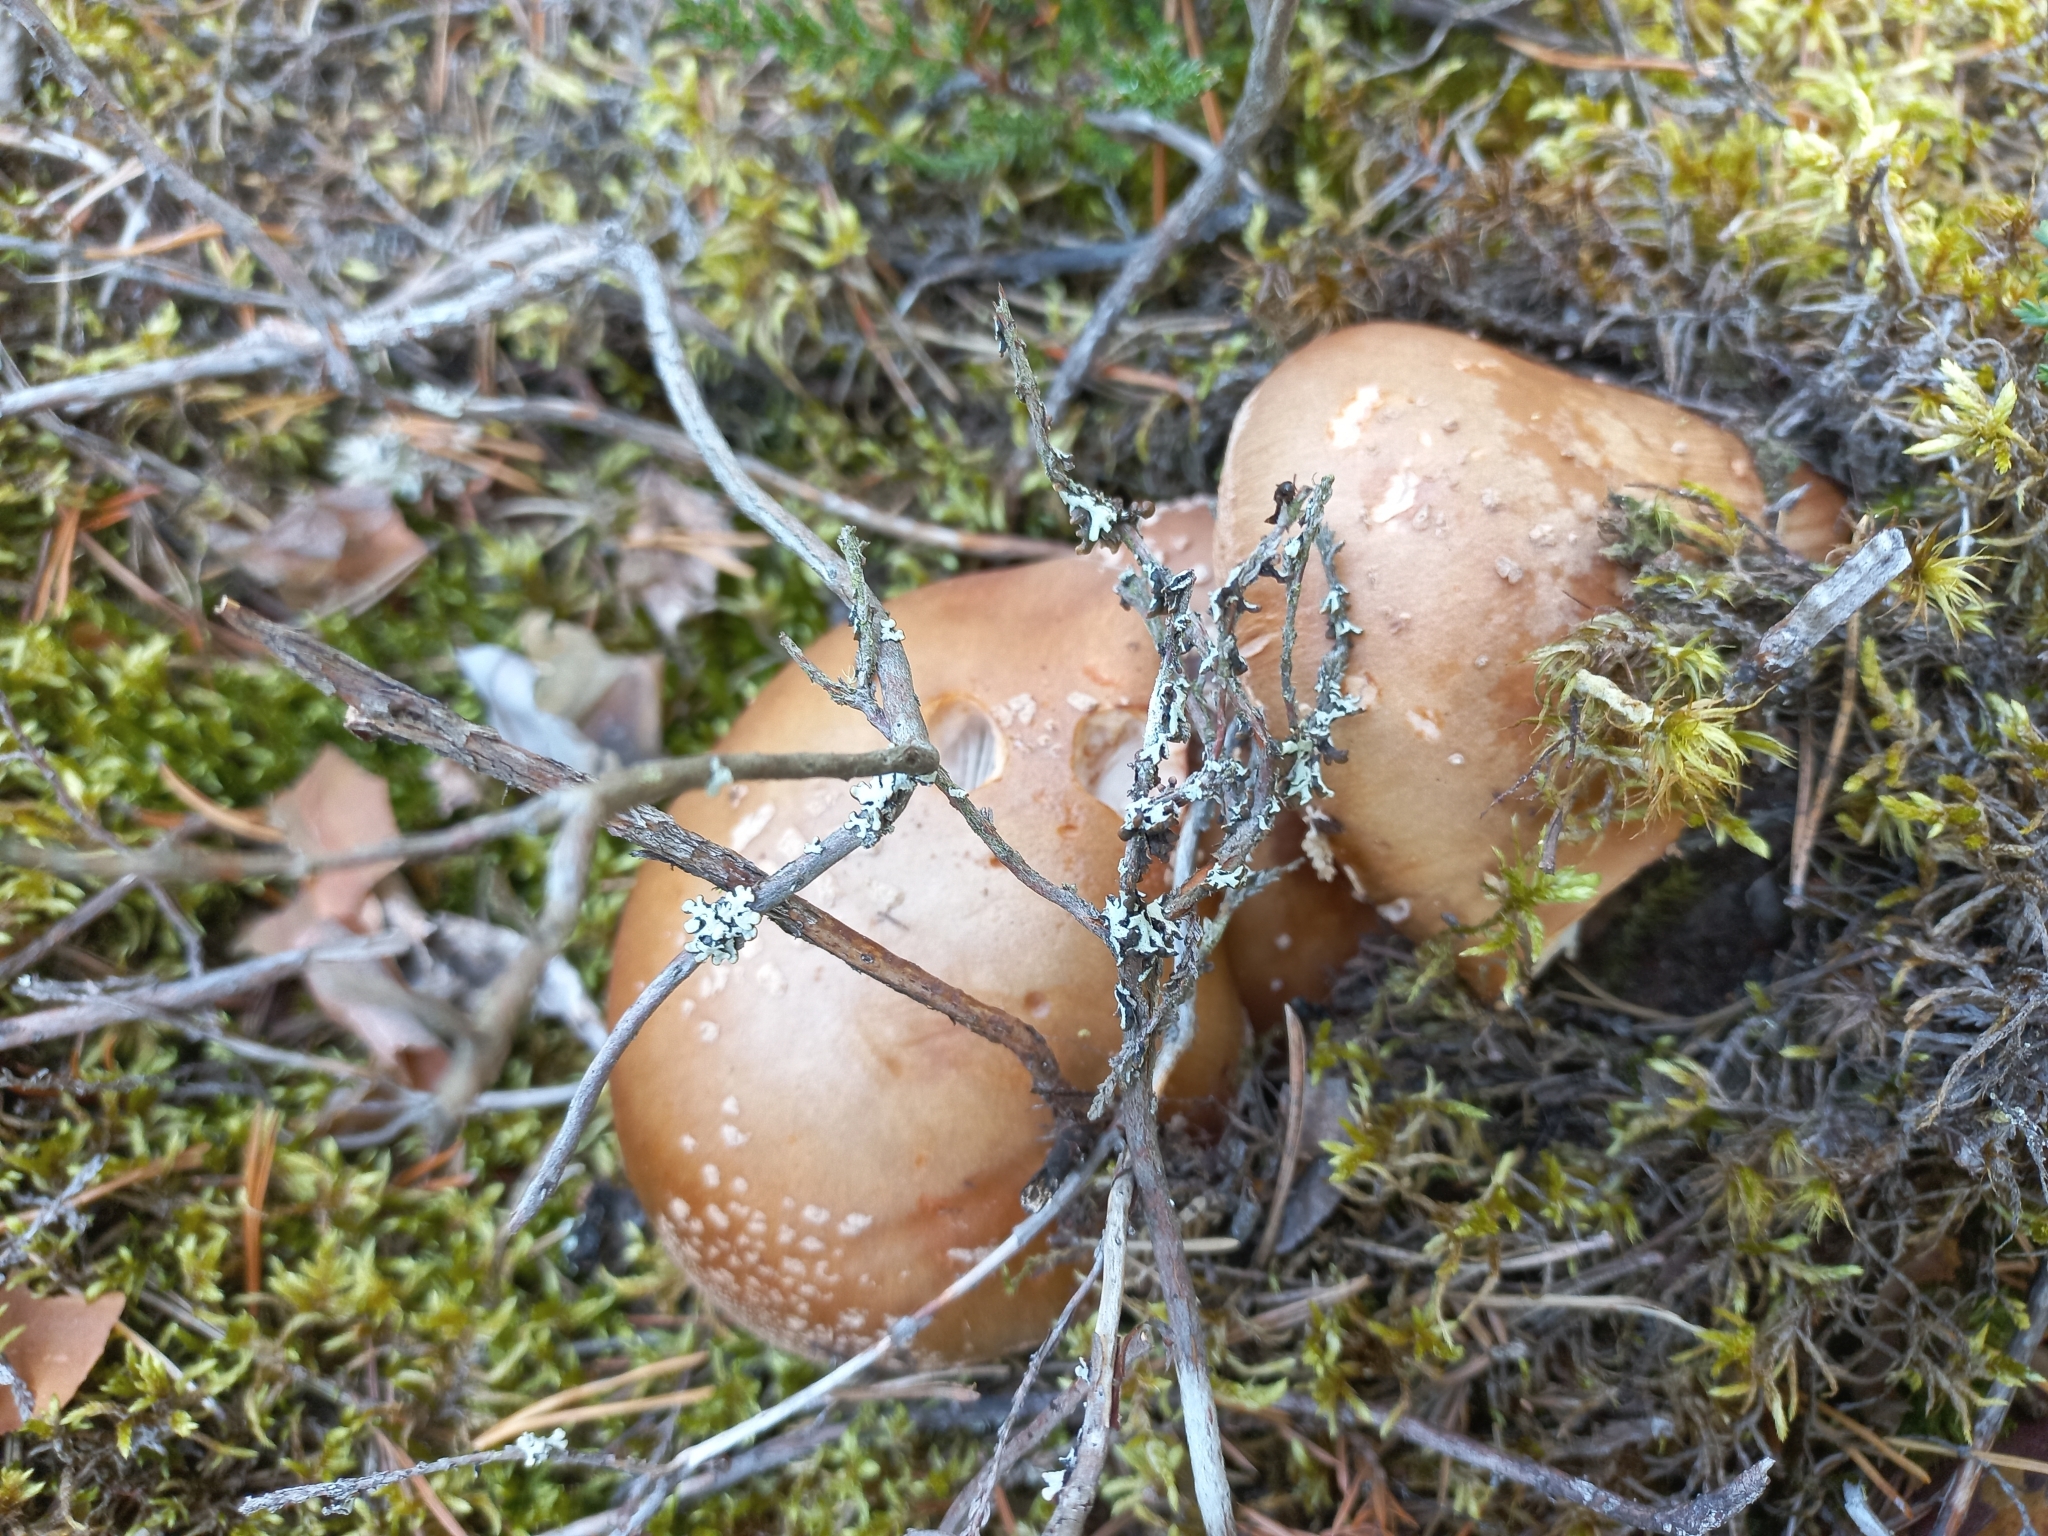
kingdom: Fungi
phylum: Basidiomycota
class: Agaricomycetes
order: Agaricales
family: Amanitaceae
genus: Amanita
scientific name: Amanita rubescens
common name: Blusher
